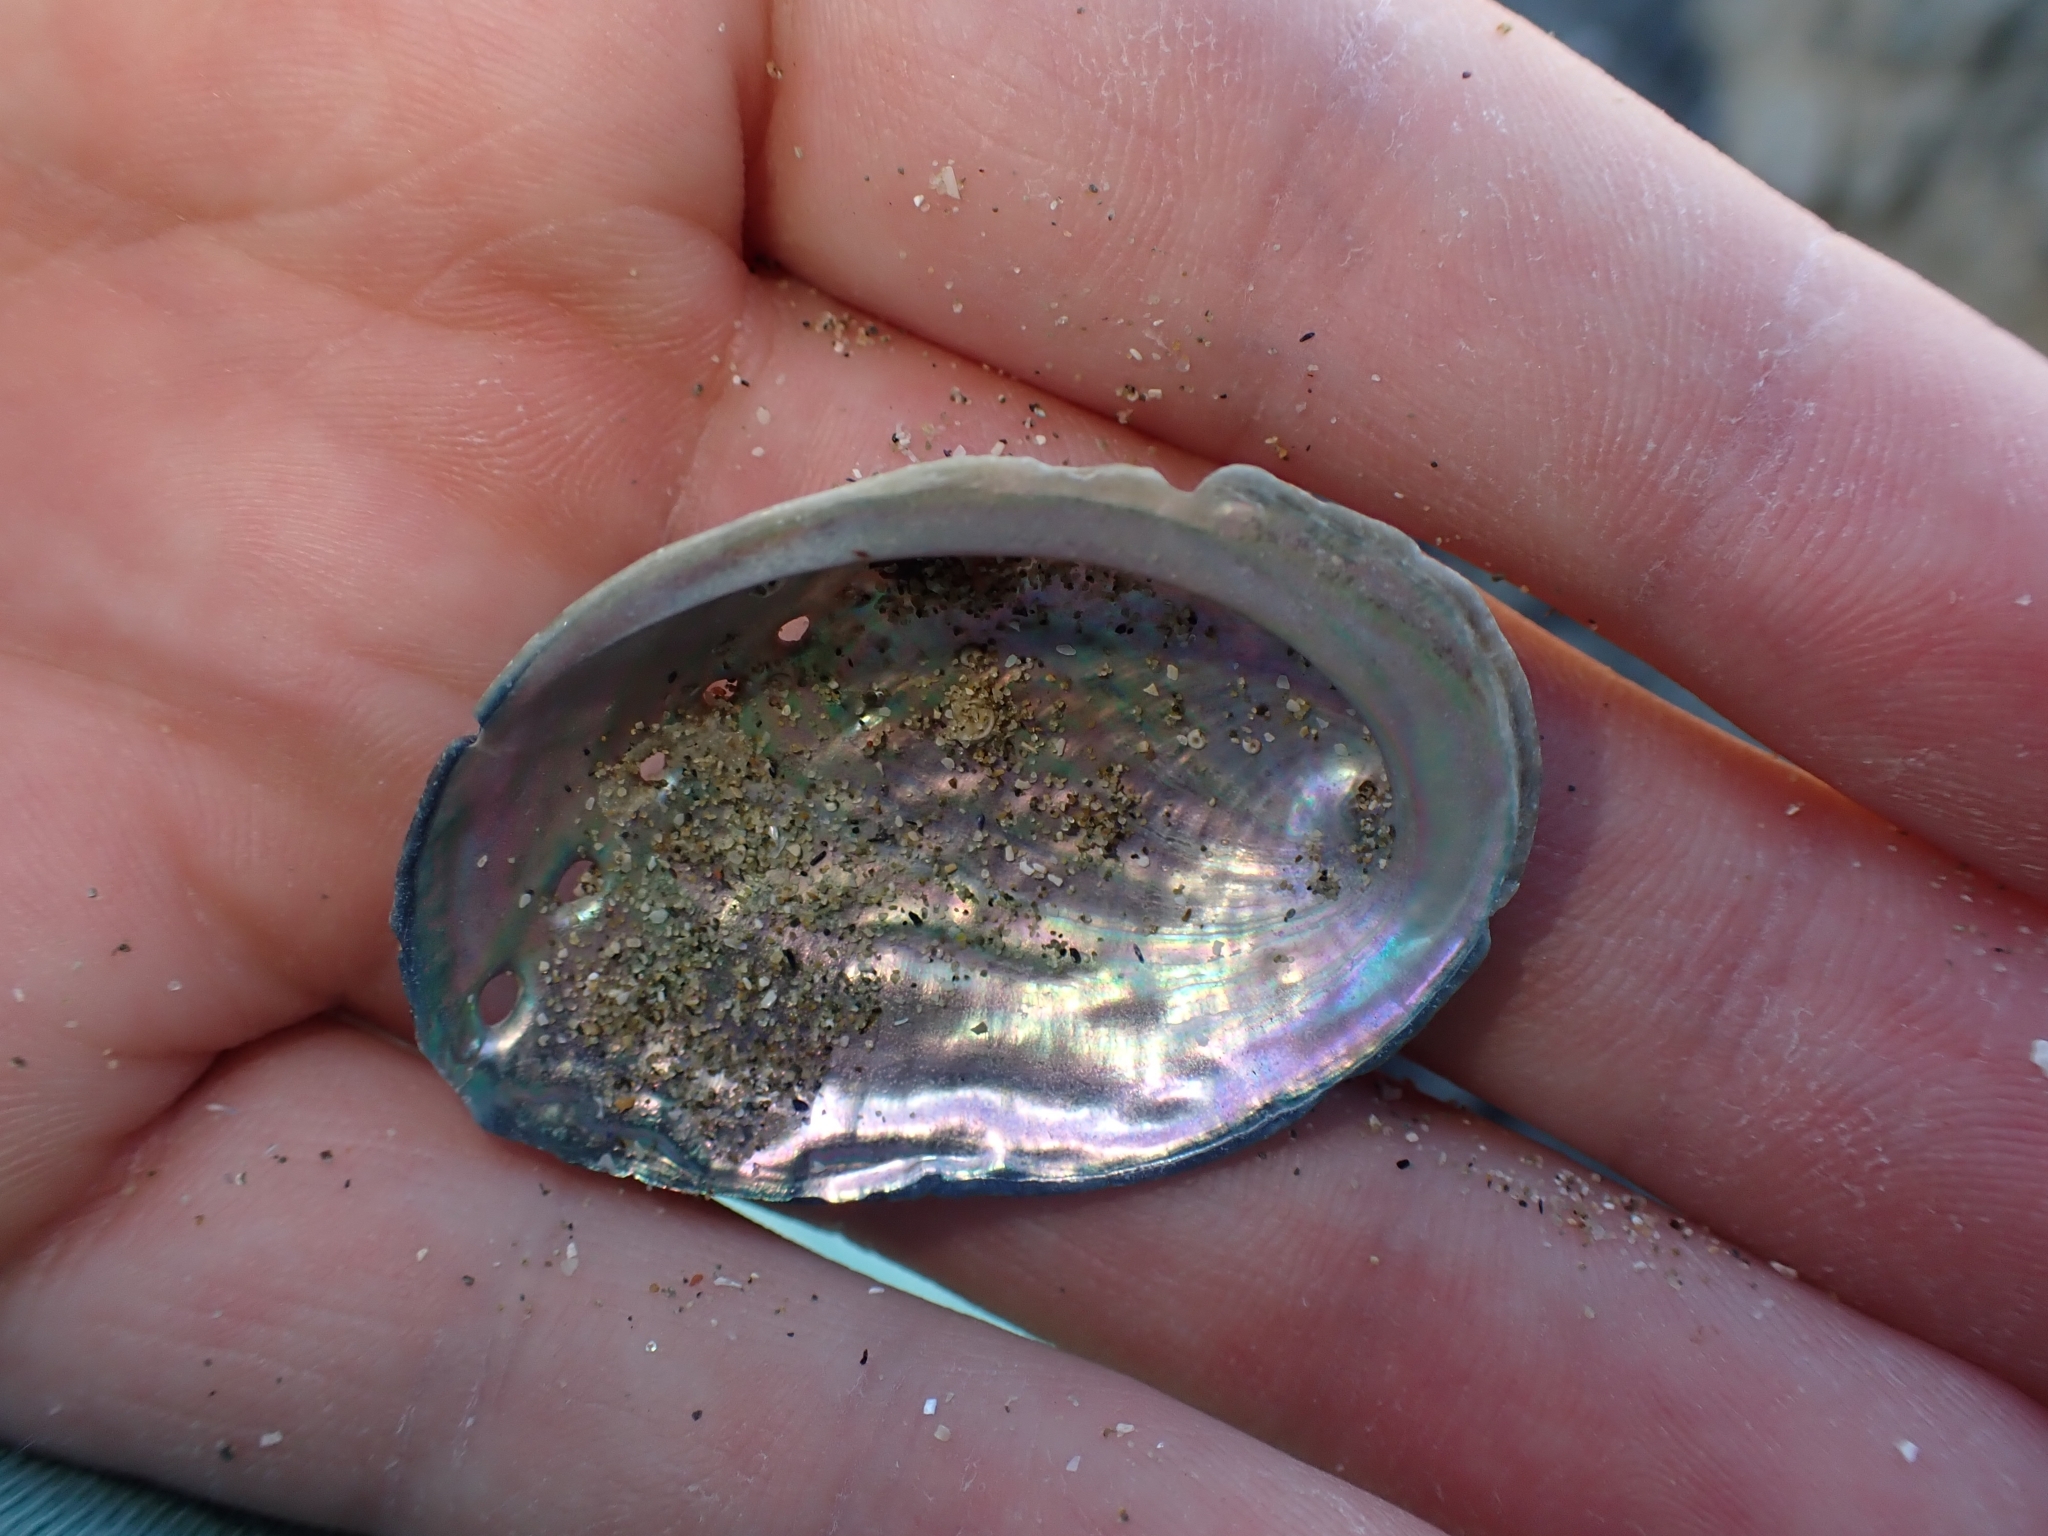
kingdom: Animalia
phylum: Mollusca
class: Gastropoda
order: Lepetellida
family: Haliotidae
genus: Haliotis
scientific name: Haliotis iris
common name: Abalone
